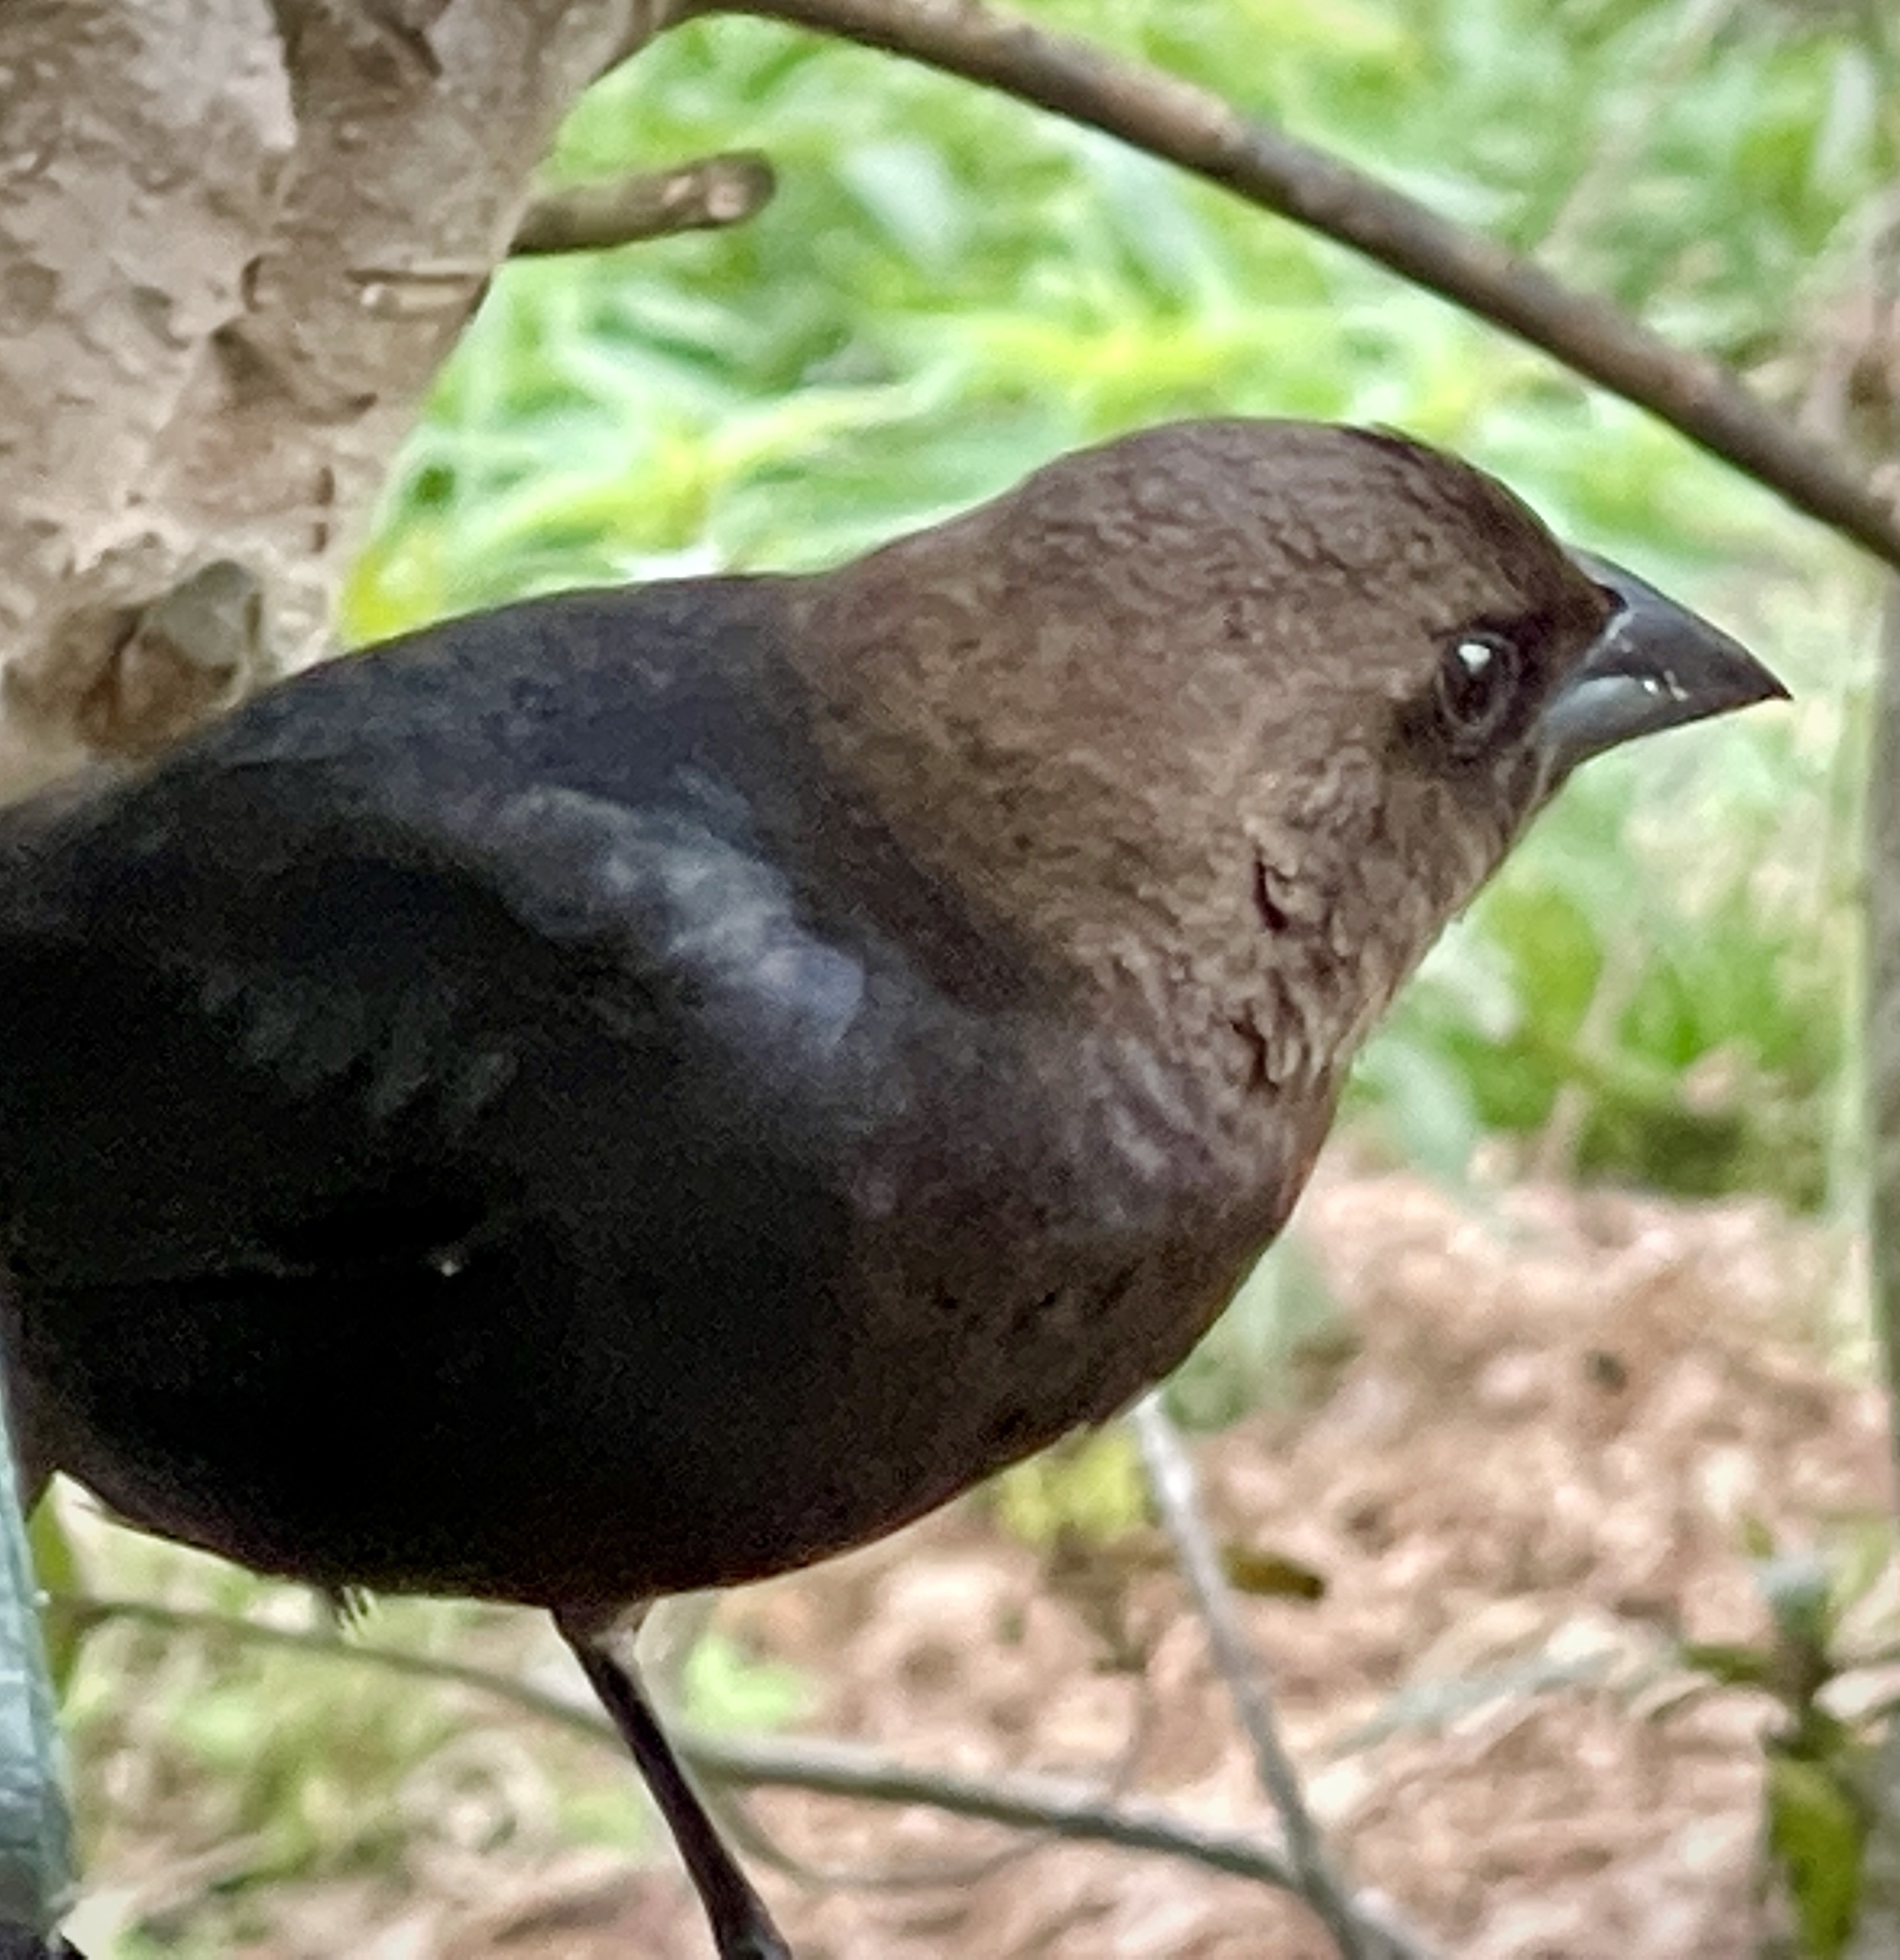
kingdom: Animalia
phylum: Chordata
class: Aves
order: Passeriformes
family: Icteridae
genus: Molothrus
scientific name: Molothrus ater
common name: Brown-headed cowbird
